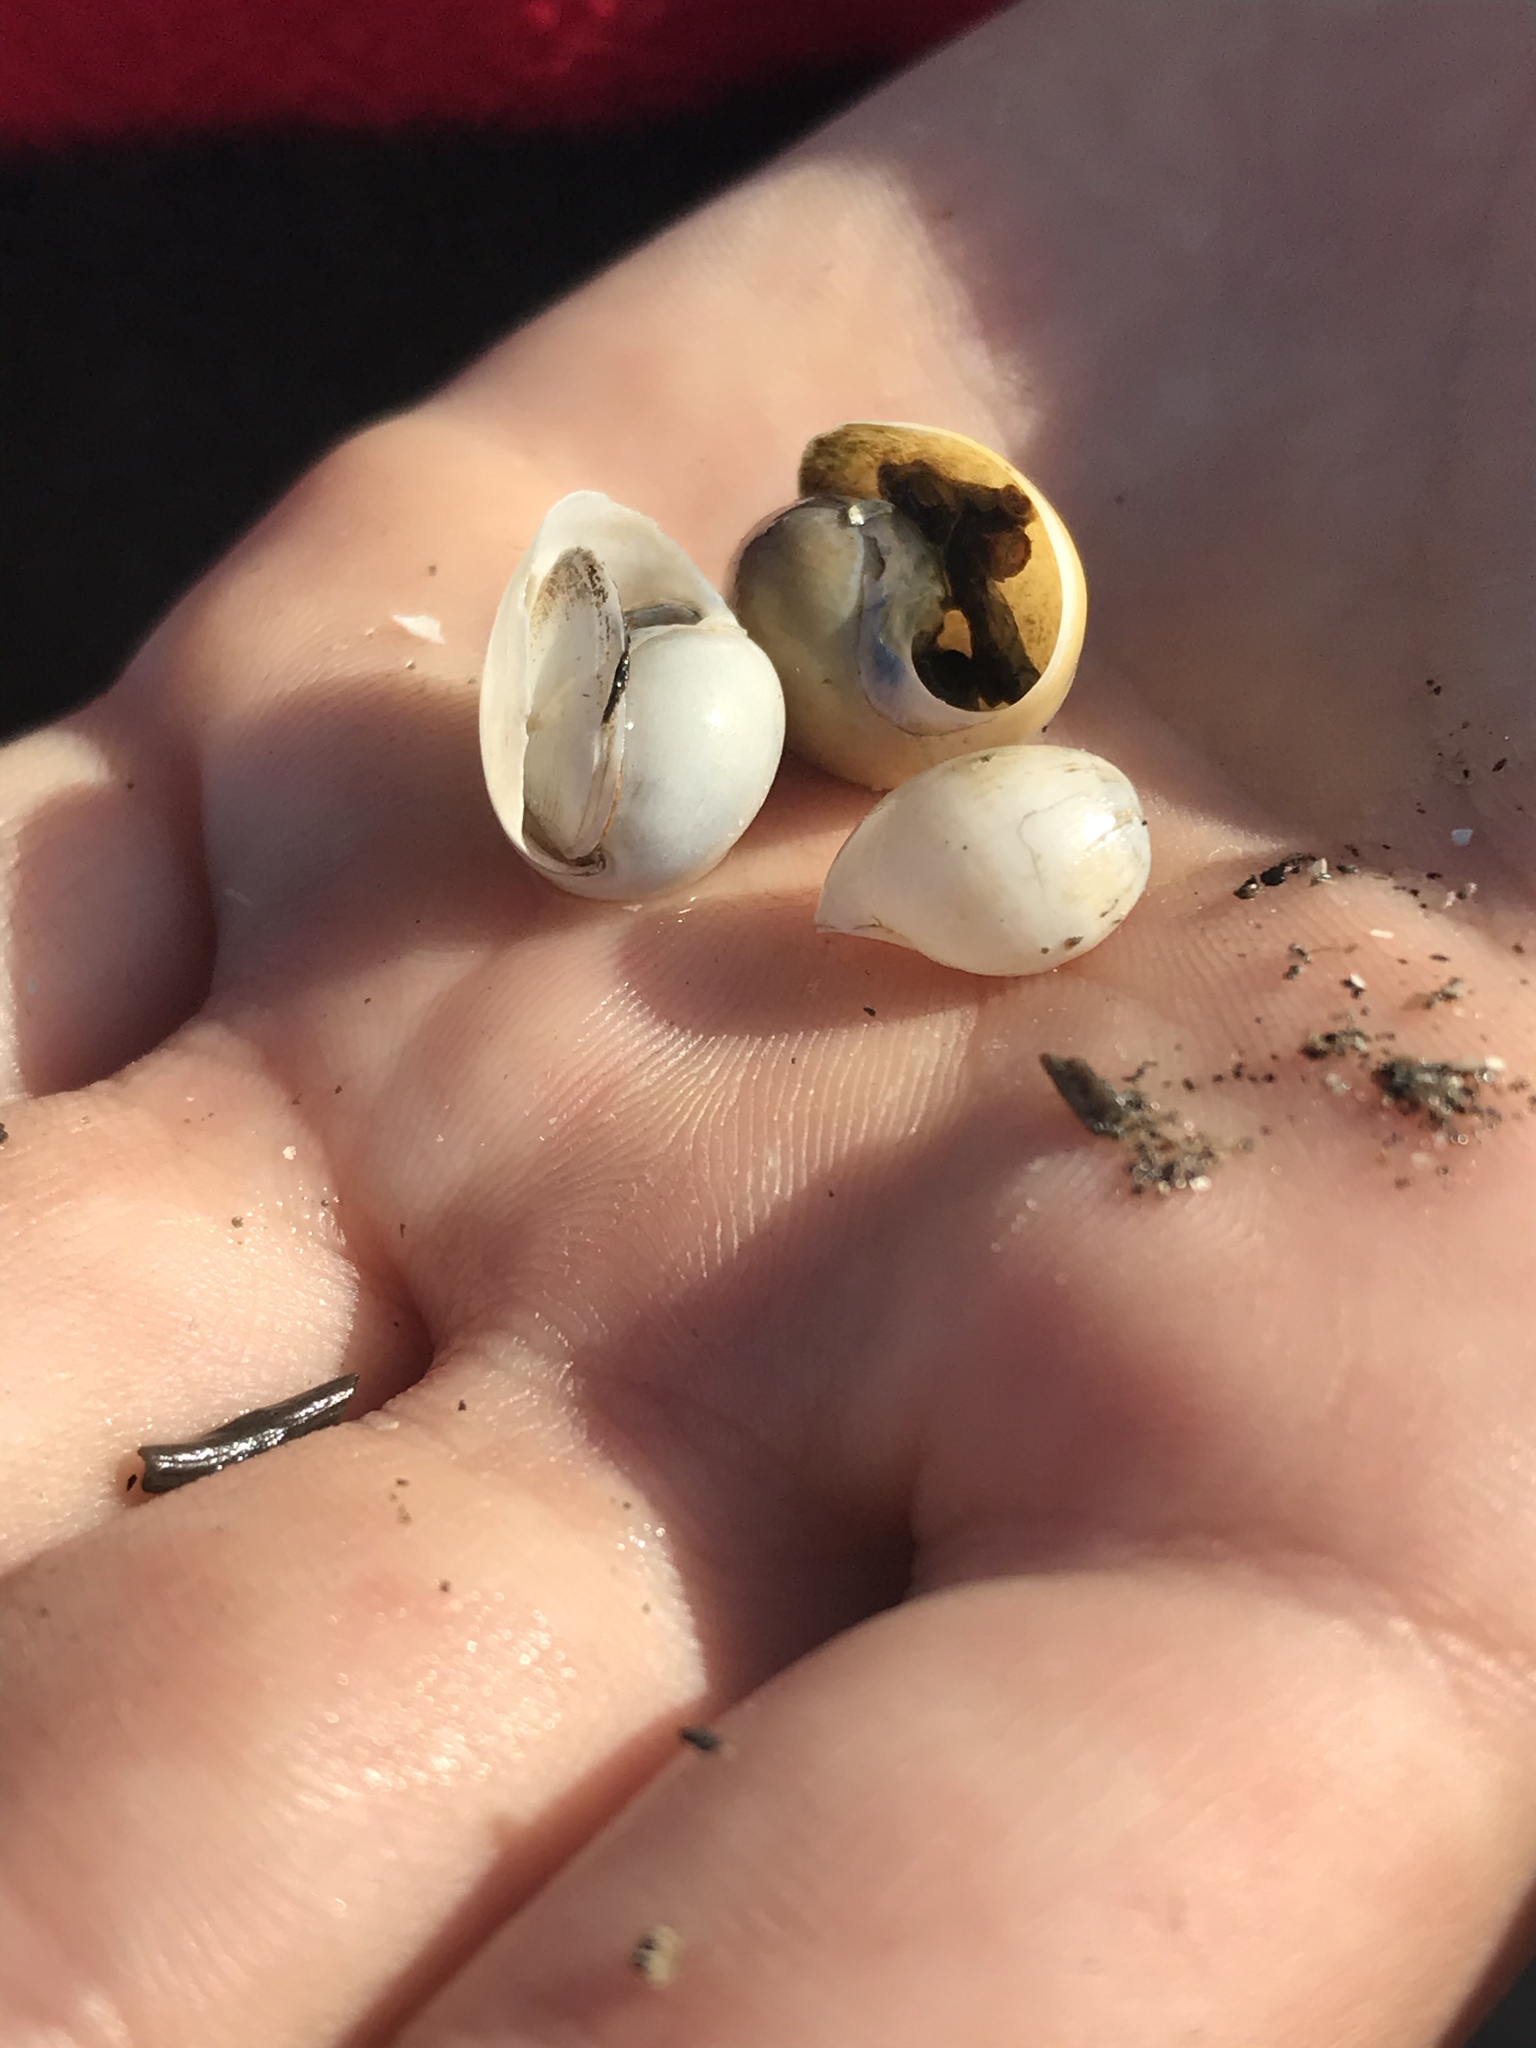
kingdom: Animalia
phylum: Mollusca
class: Gastropoda
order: Cephalaspidea
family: Haminoeidae
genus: Haloa
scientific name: Haloa japonica
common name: Japanese bubble snail
